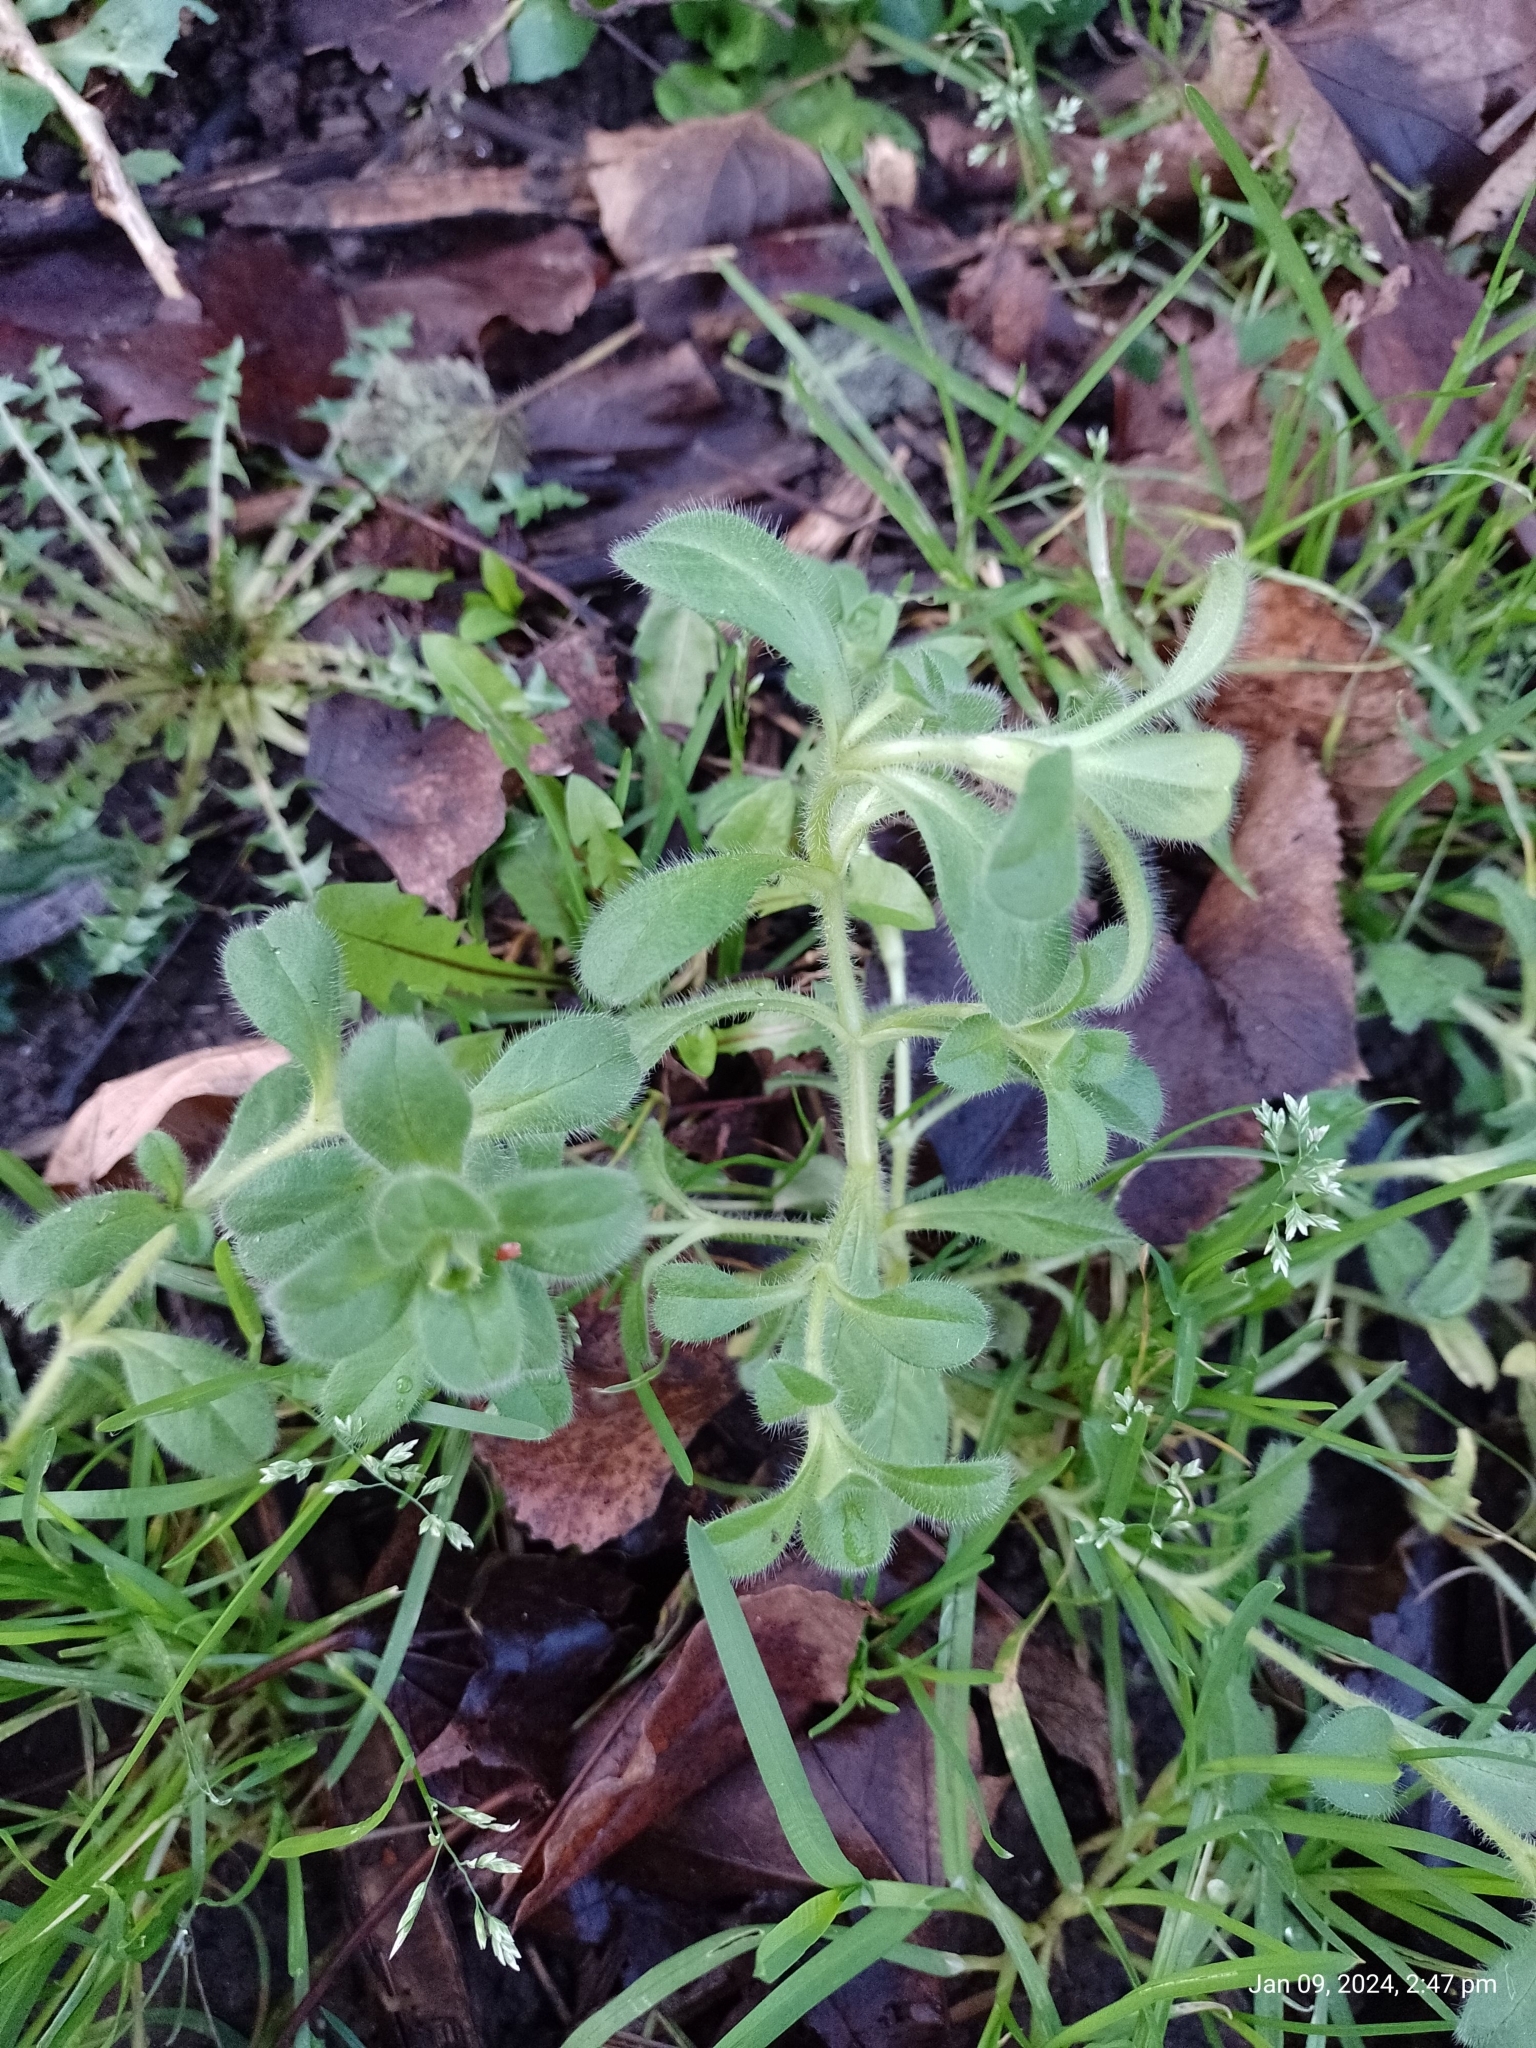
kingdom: Plantae
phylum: Tracheophyta
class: Magnoliopsida
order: Caryophyllales
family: Caryophyllaceae
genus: Cerastium
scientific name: Cerastium glomeratum
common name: Sticky chickweed
